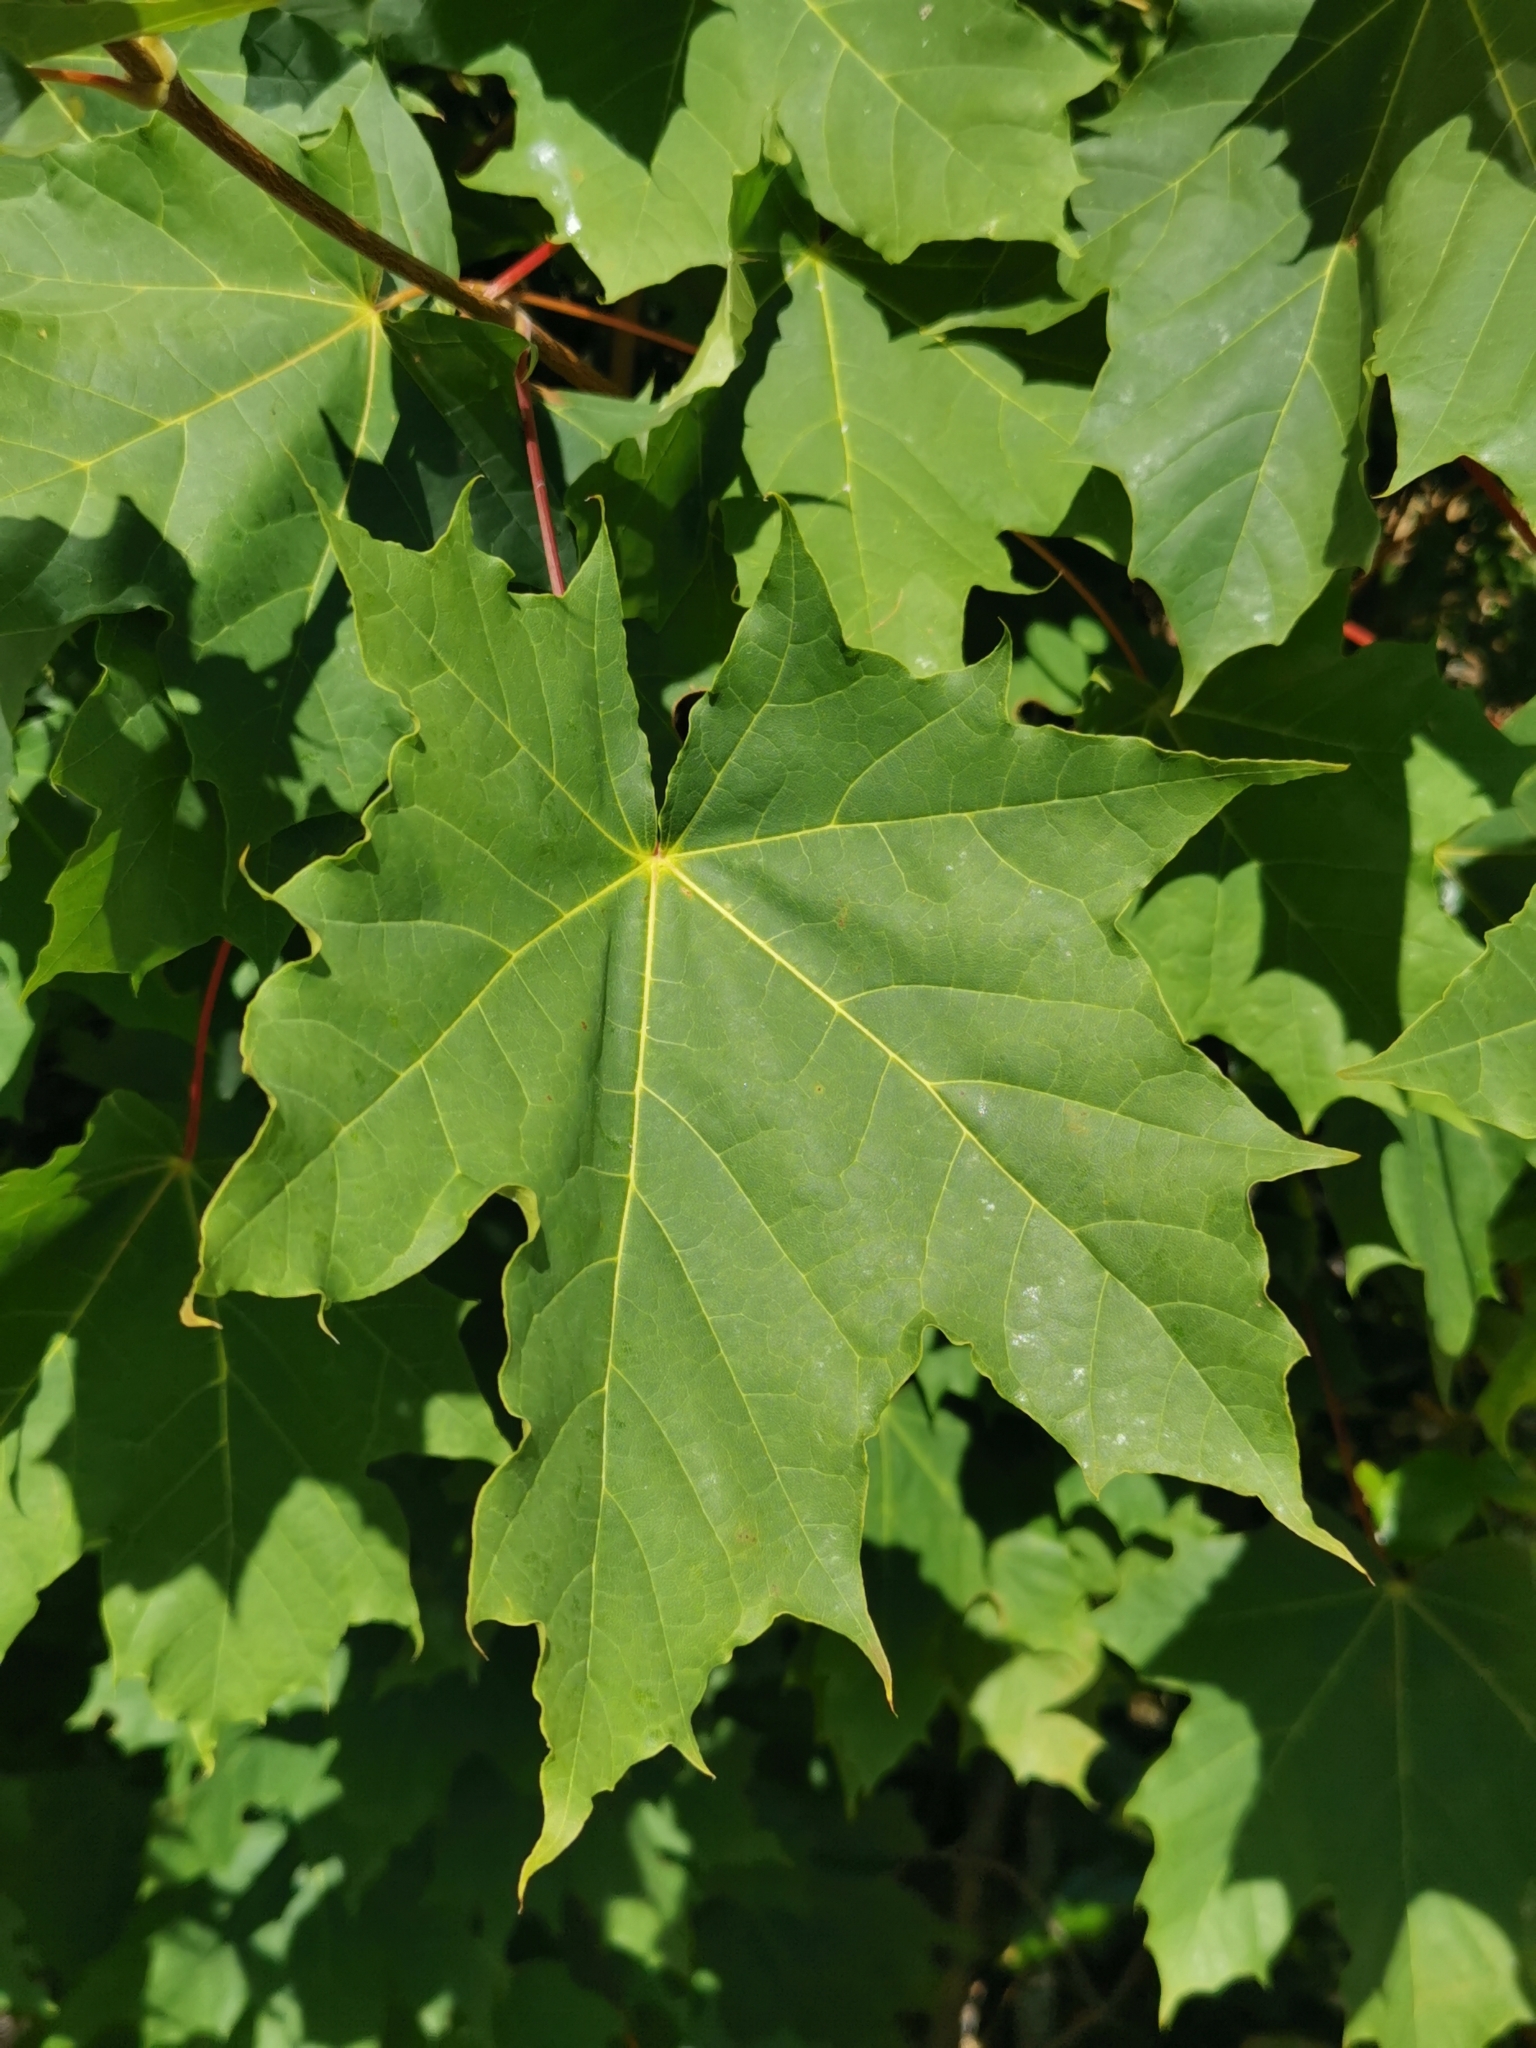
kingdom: Plantae
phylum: Tracheophyta
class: Magnoliopsida
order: Sapindales
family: Sapindaceae
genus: Acer
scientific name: Acer platanoides
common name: Norway maple
